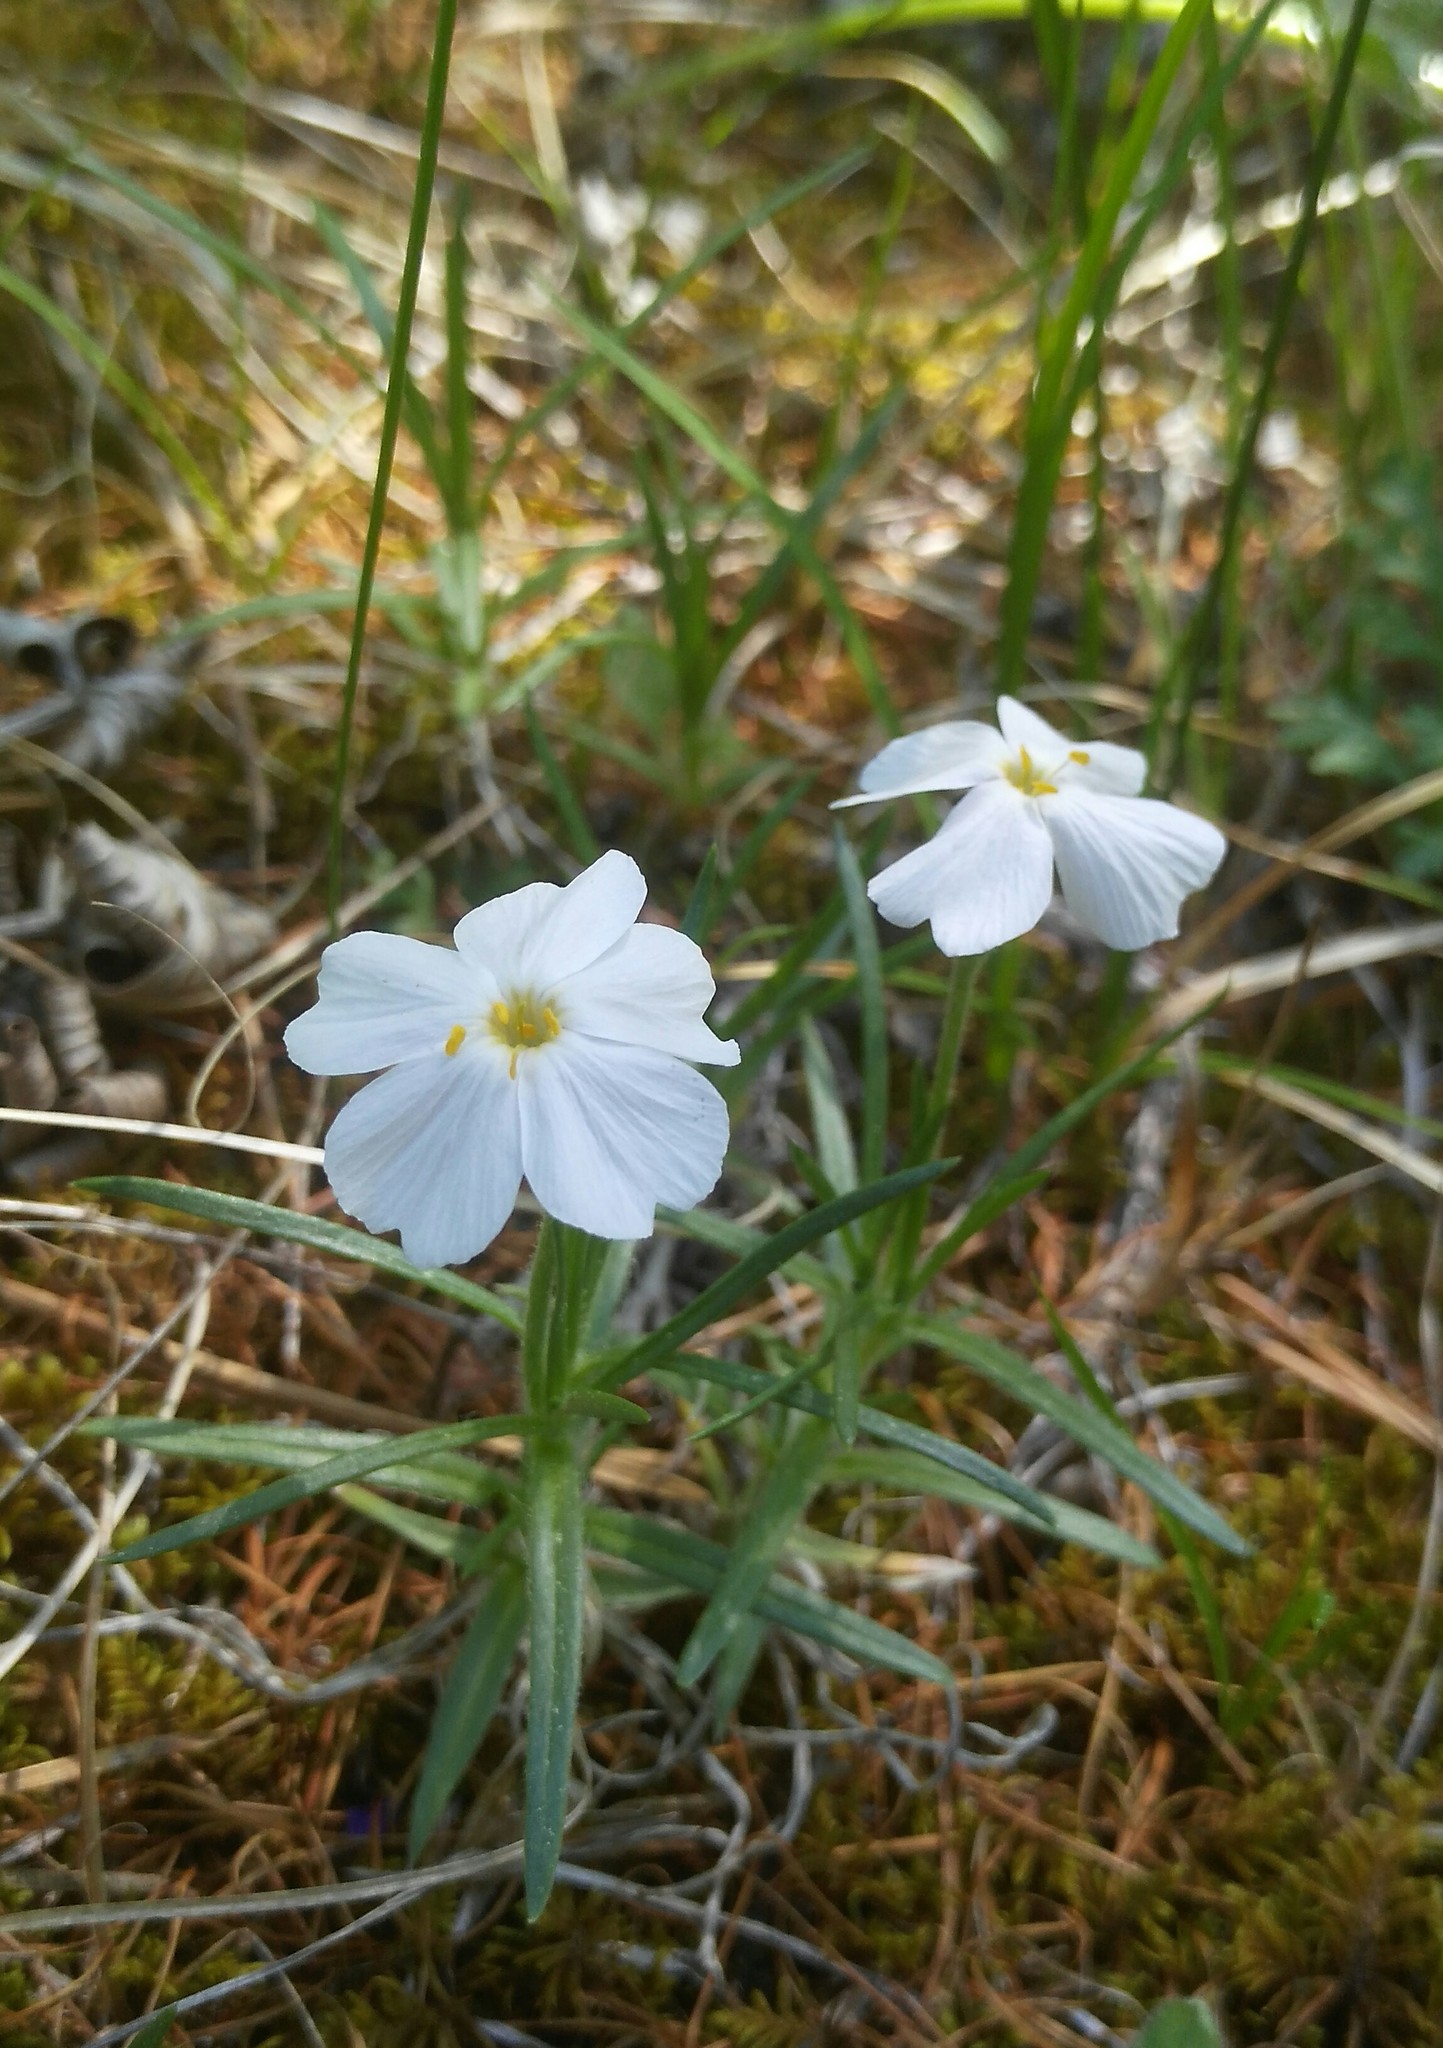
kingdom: Plantae
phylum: Tracheophyta
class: Magnoliopsida
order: Ericales
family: Polemoniaceae
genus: Phlox
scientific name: Phlox sibirica
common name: Siberian phlox
